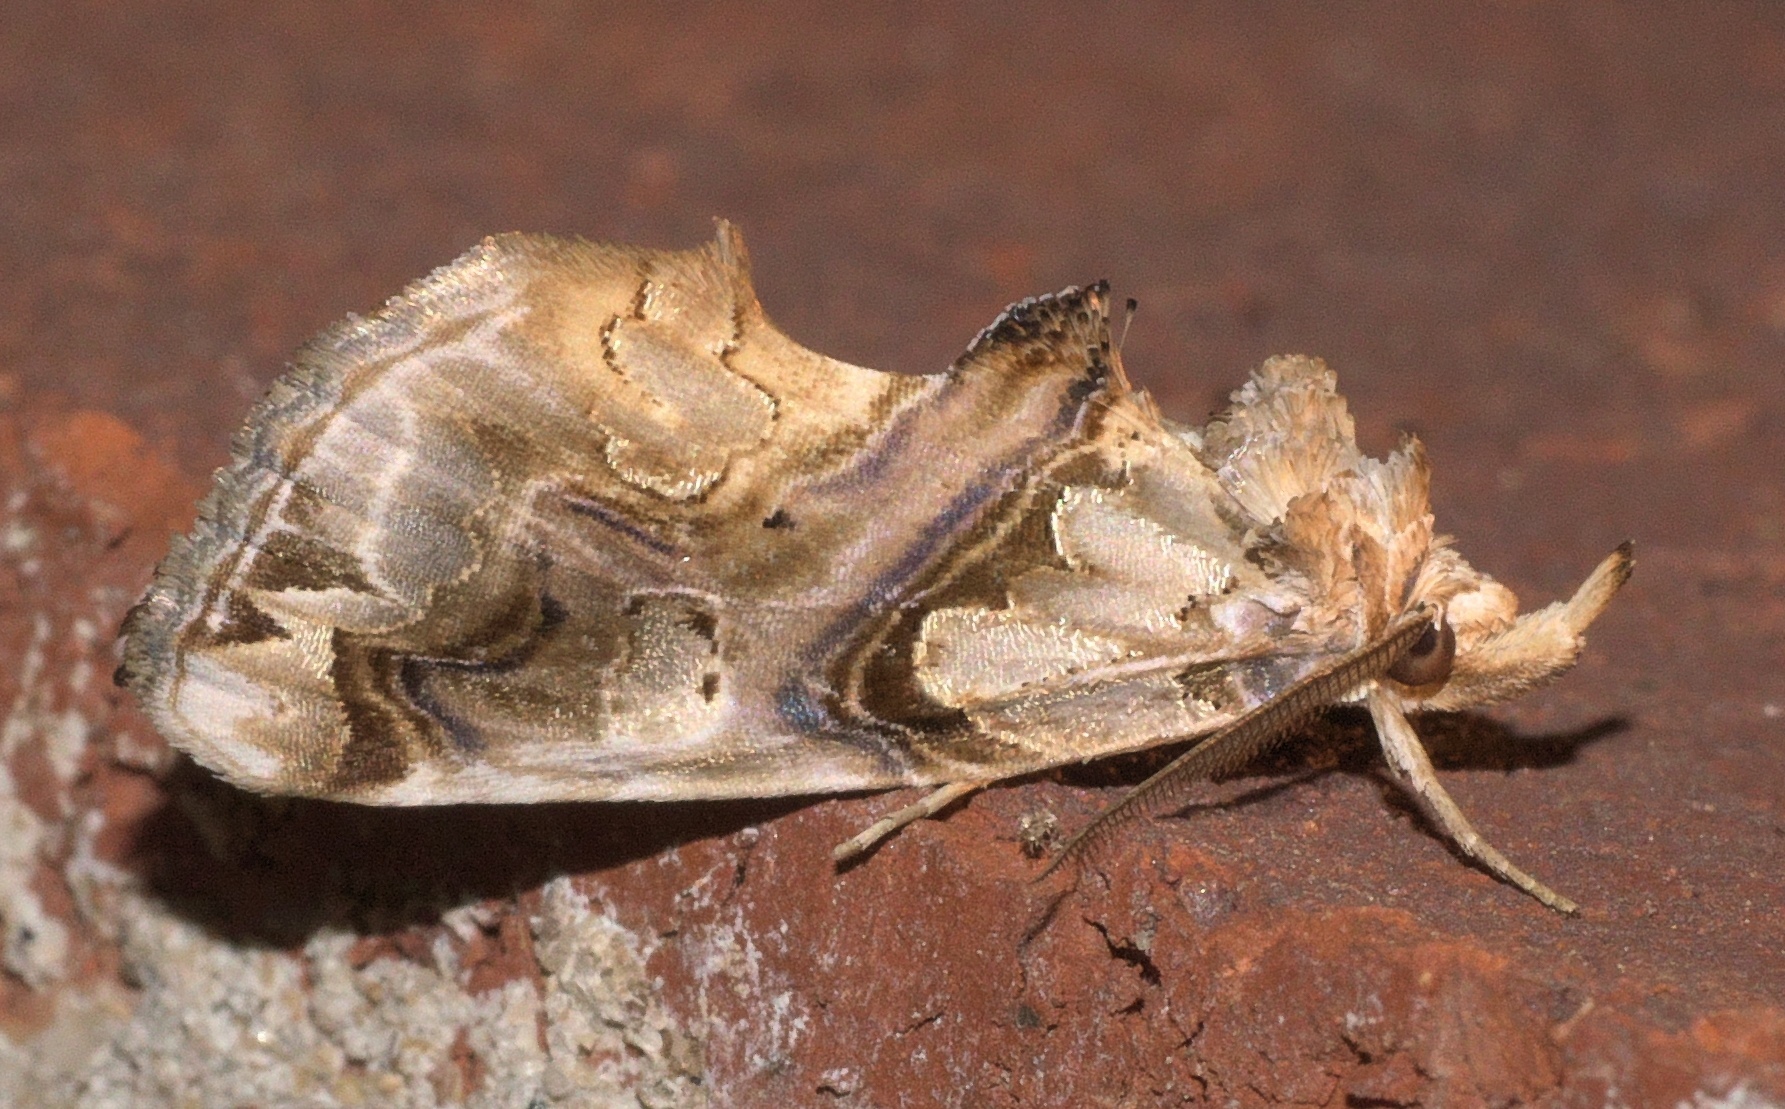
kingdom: Animalia
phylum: Arthropoda
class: Insecta
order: Lepidoptera
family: Erebidae
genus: Plusiodonta
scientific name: Plusiodonta compressipalpis
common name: Moonseed moth
